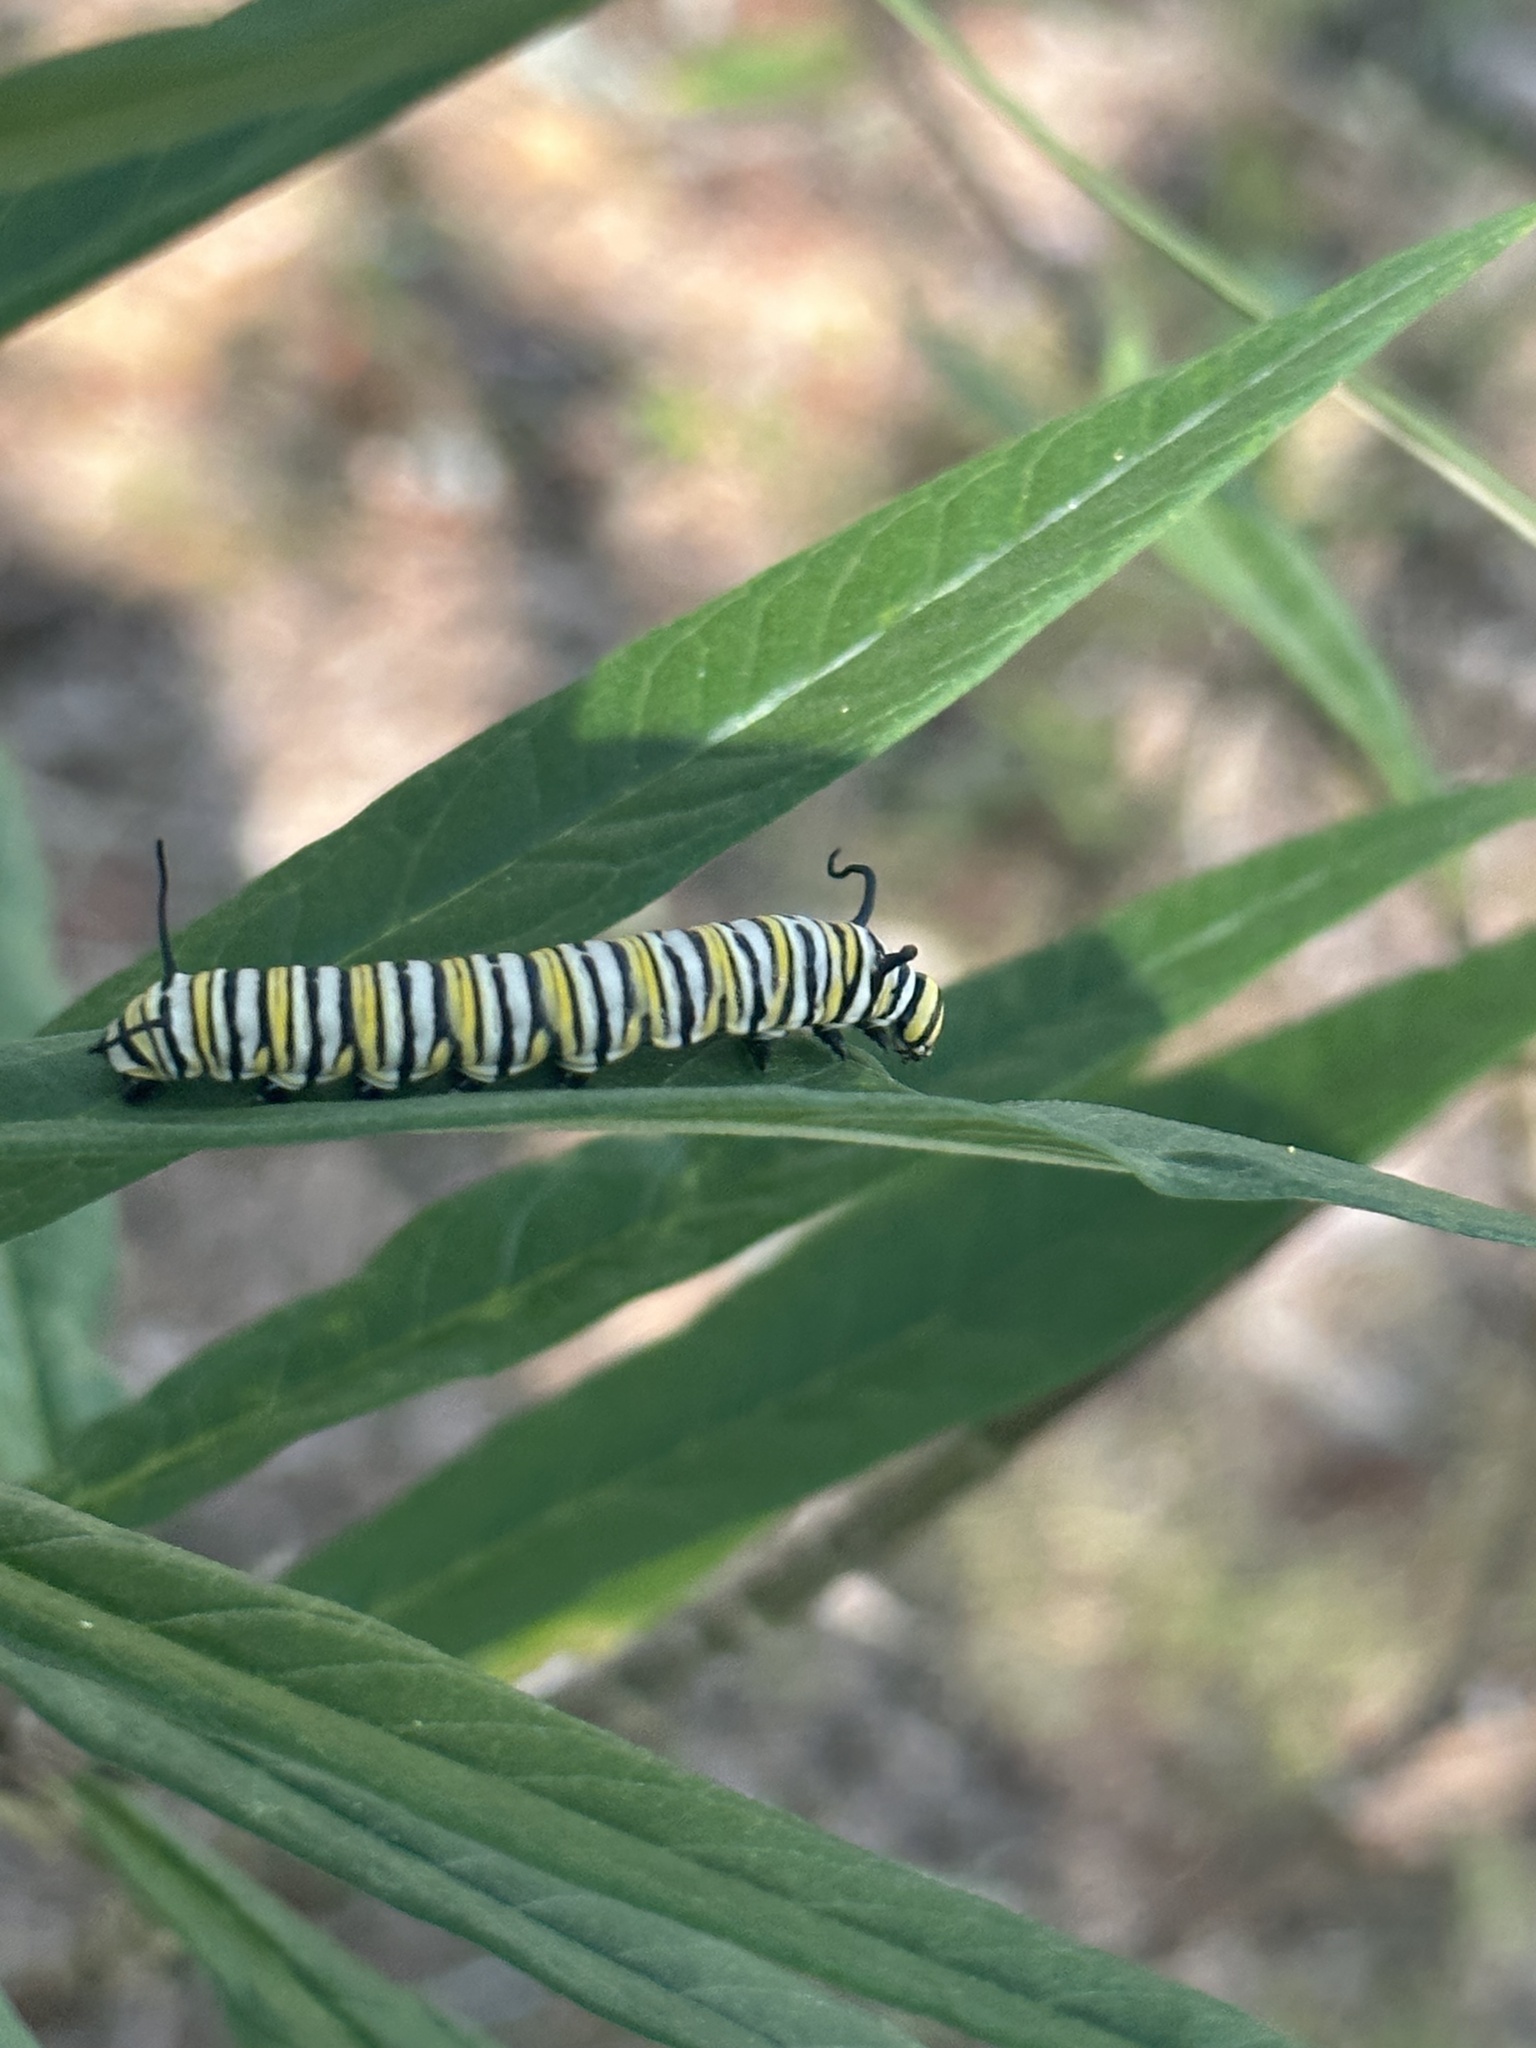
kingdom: Animalia
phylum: Arthropoda
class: Insecta
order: Lepidoptera
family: Nymphalidae
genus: Danaus
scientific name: Danaus plexippus
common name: Monarch
